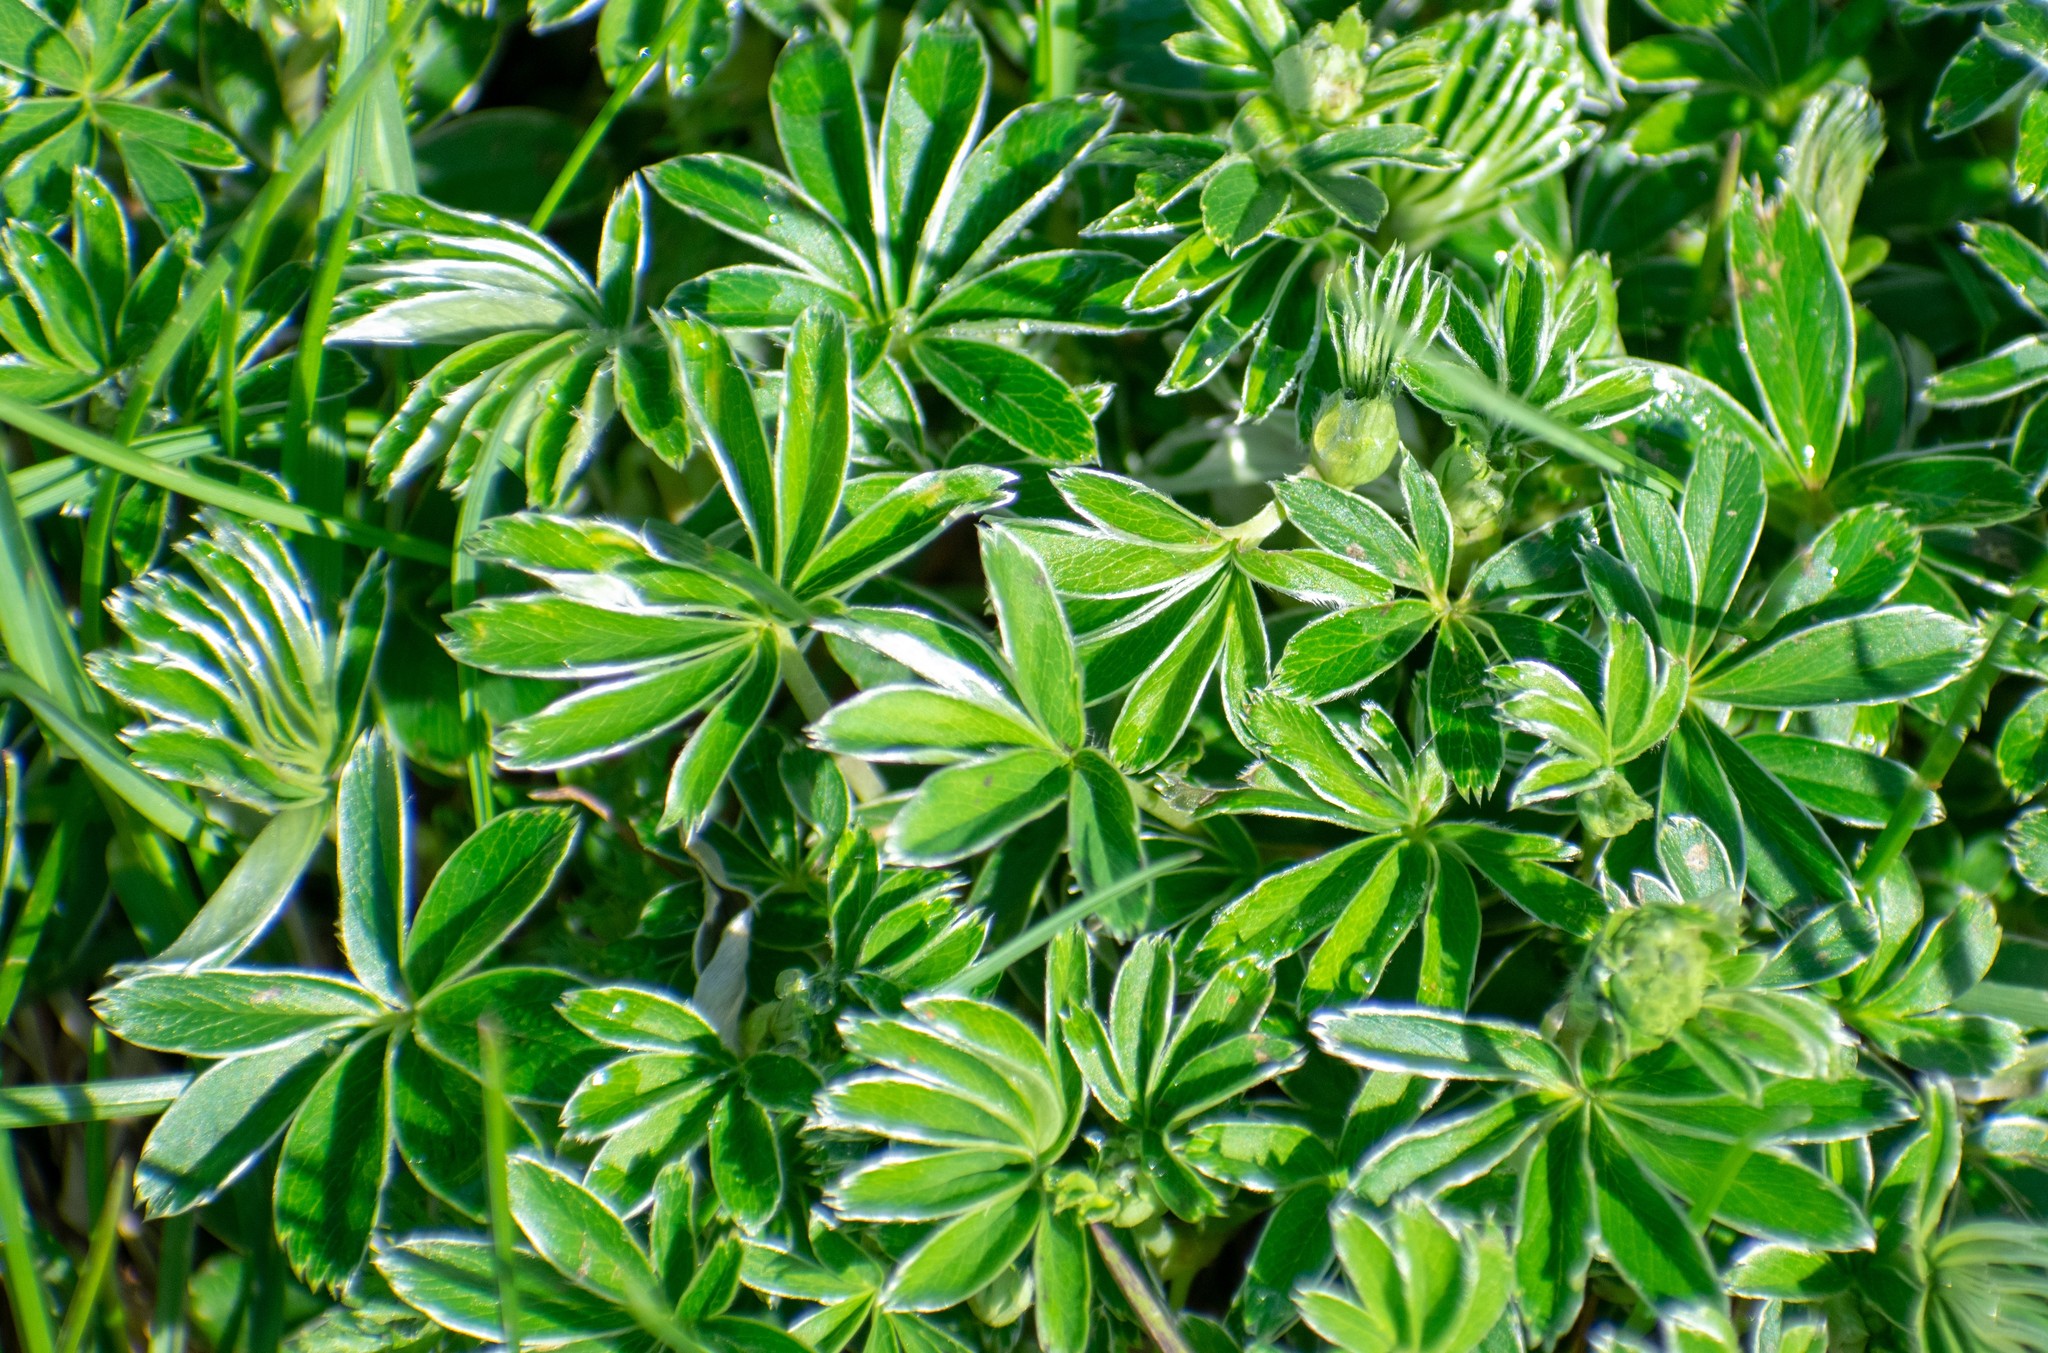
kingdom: Plantae
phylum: Tracheophyta
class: Magnoliopsida
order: Rosales
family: Rosaceae
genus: Alchemilla
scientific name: Alchemilla nitida
